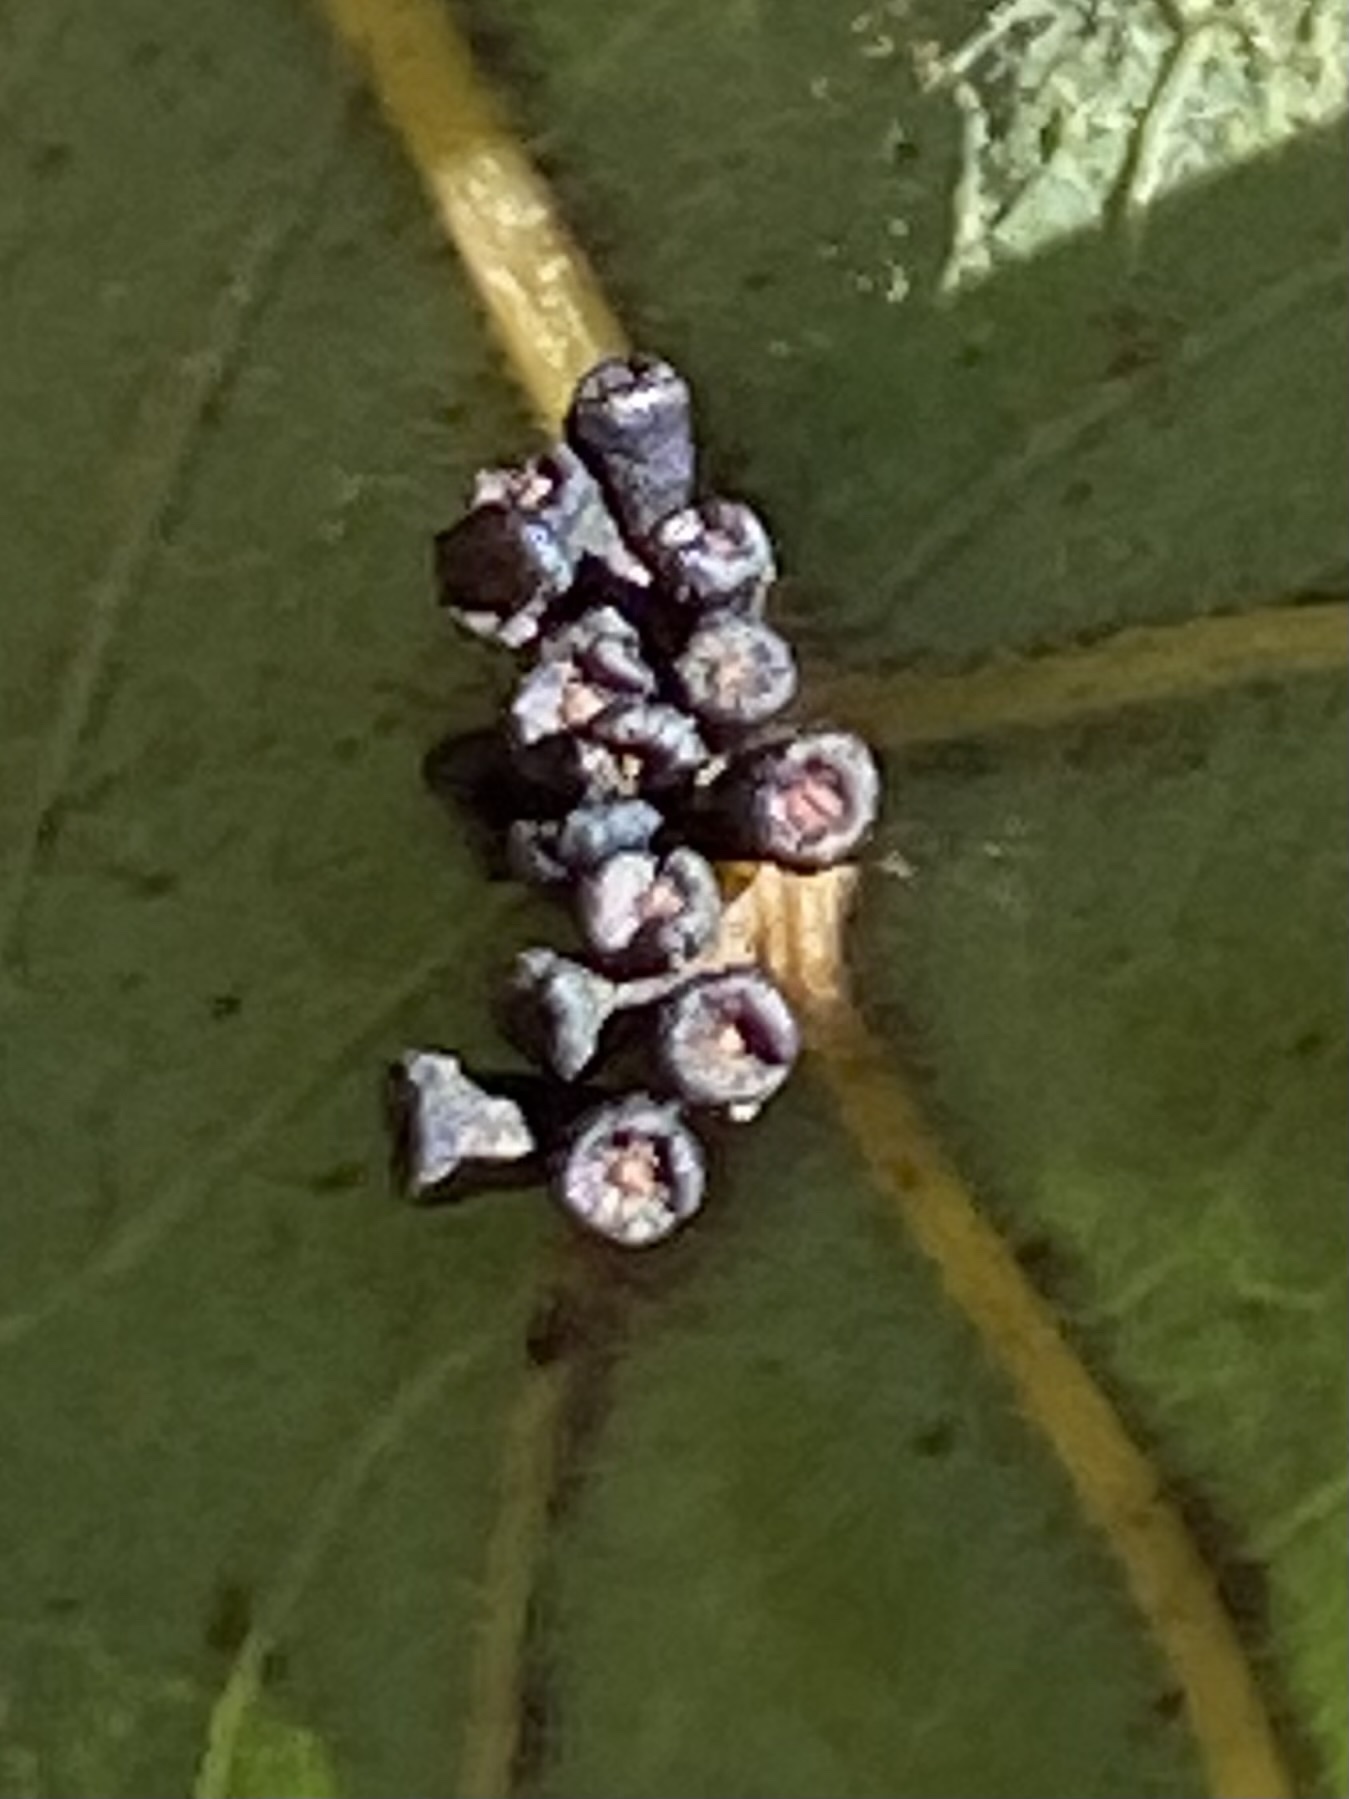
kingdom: Animalia
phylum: Arthropoda
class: Insecta
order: Hymenoptera
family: Cynipidae
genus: Andricus
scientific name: Andricus lustrans
